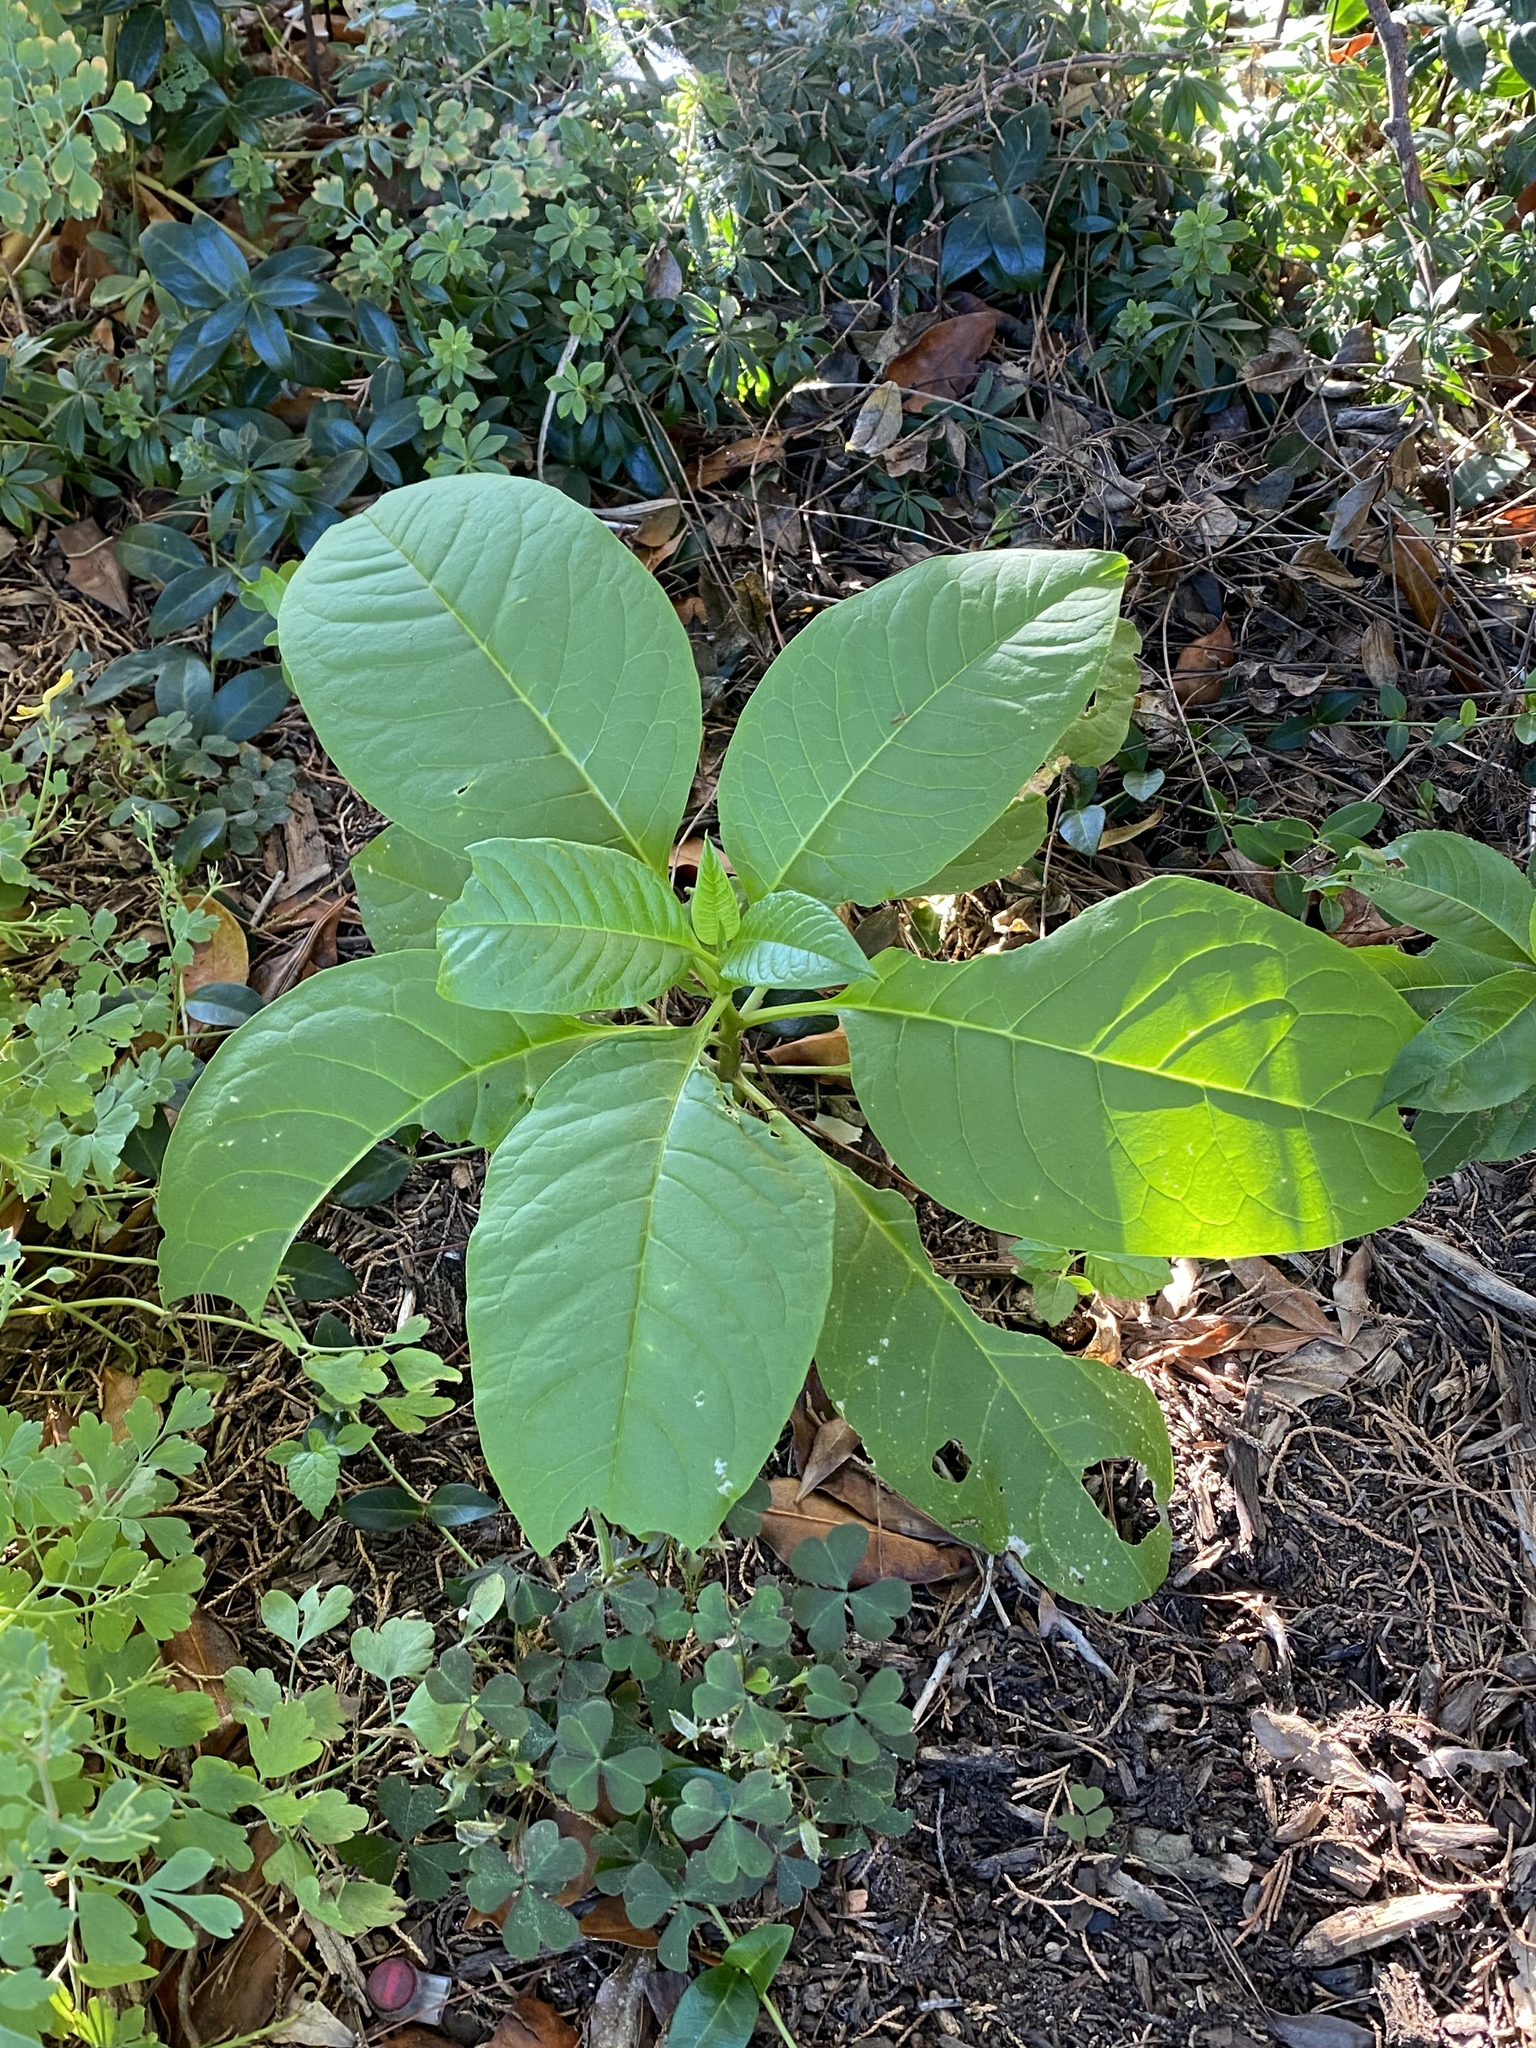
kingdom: Plantae
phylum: Tracheophyta
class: Magnoliopsida
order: Caryophyllales
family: Phytolaccaceae
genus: Phytolacca
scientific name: Phytolacca americana
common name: American pokeweed
